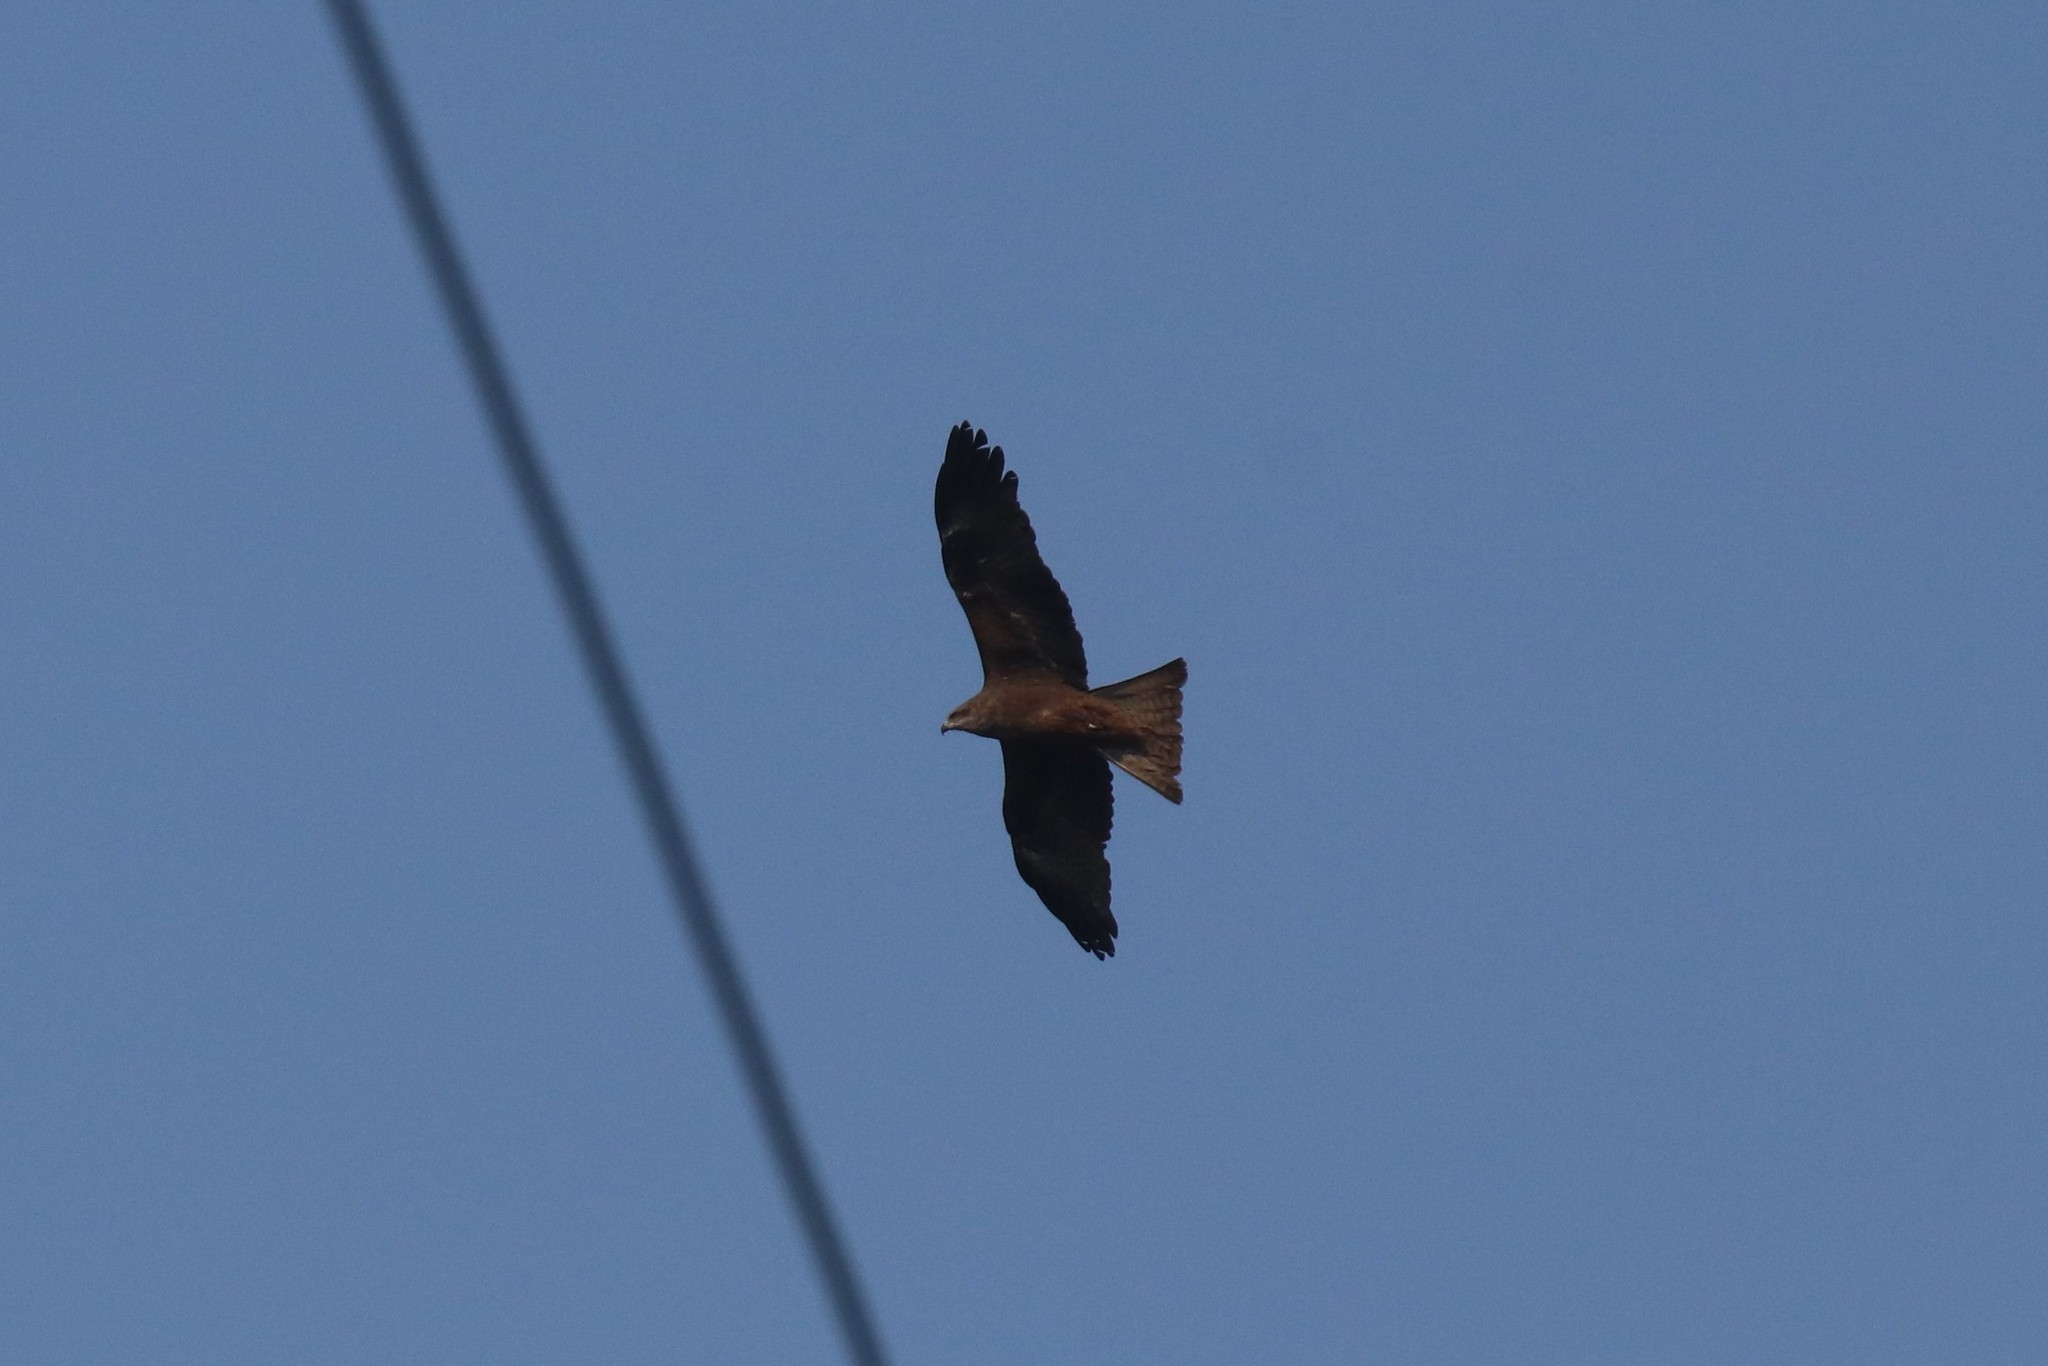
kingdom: Animalia
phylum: Chordata
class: Aves
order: Accipitriformes
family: Accipitridae
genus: Milvus
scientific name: Milvus migrans
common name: Black kite
